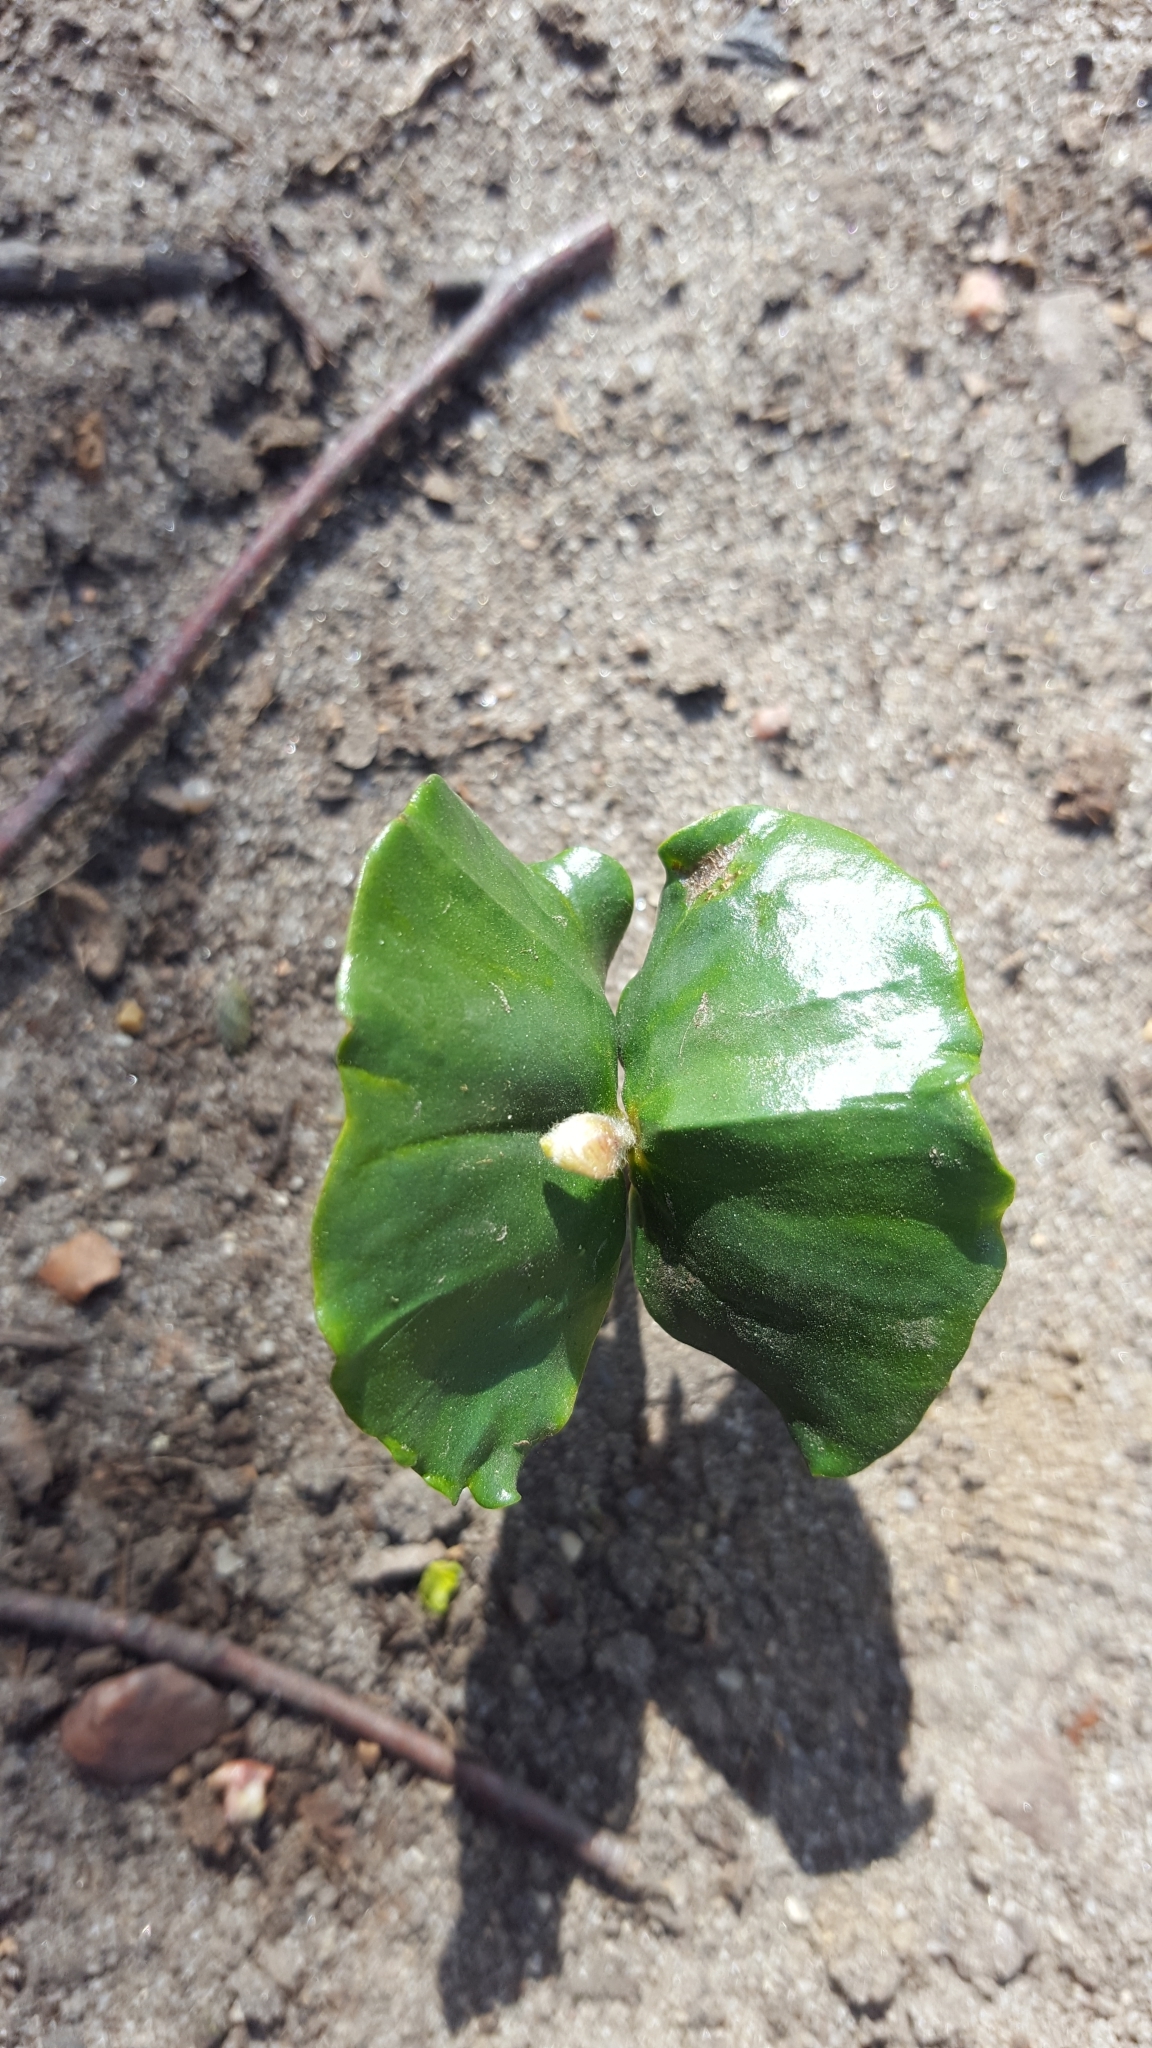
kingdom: Plantae
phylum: Tracheophyta
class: Magnoliopsida
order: Fagales
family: Fagaceae
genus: Fagus
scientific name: Fagus sylvatica
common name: Beech
